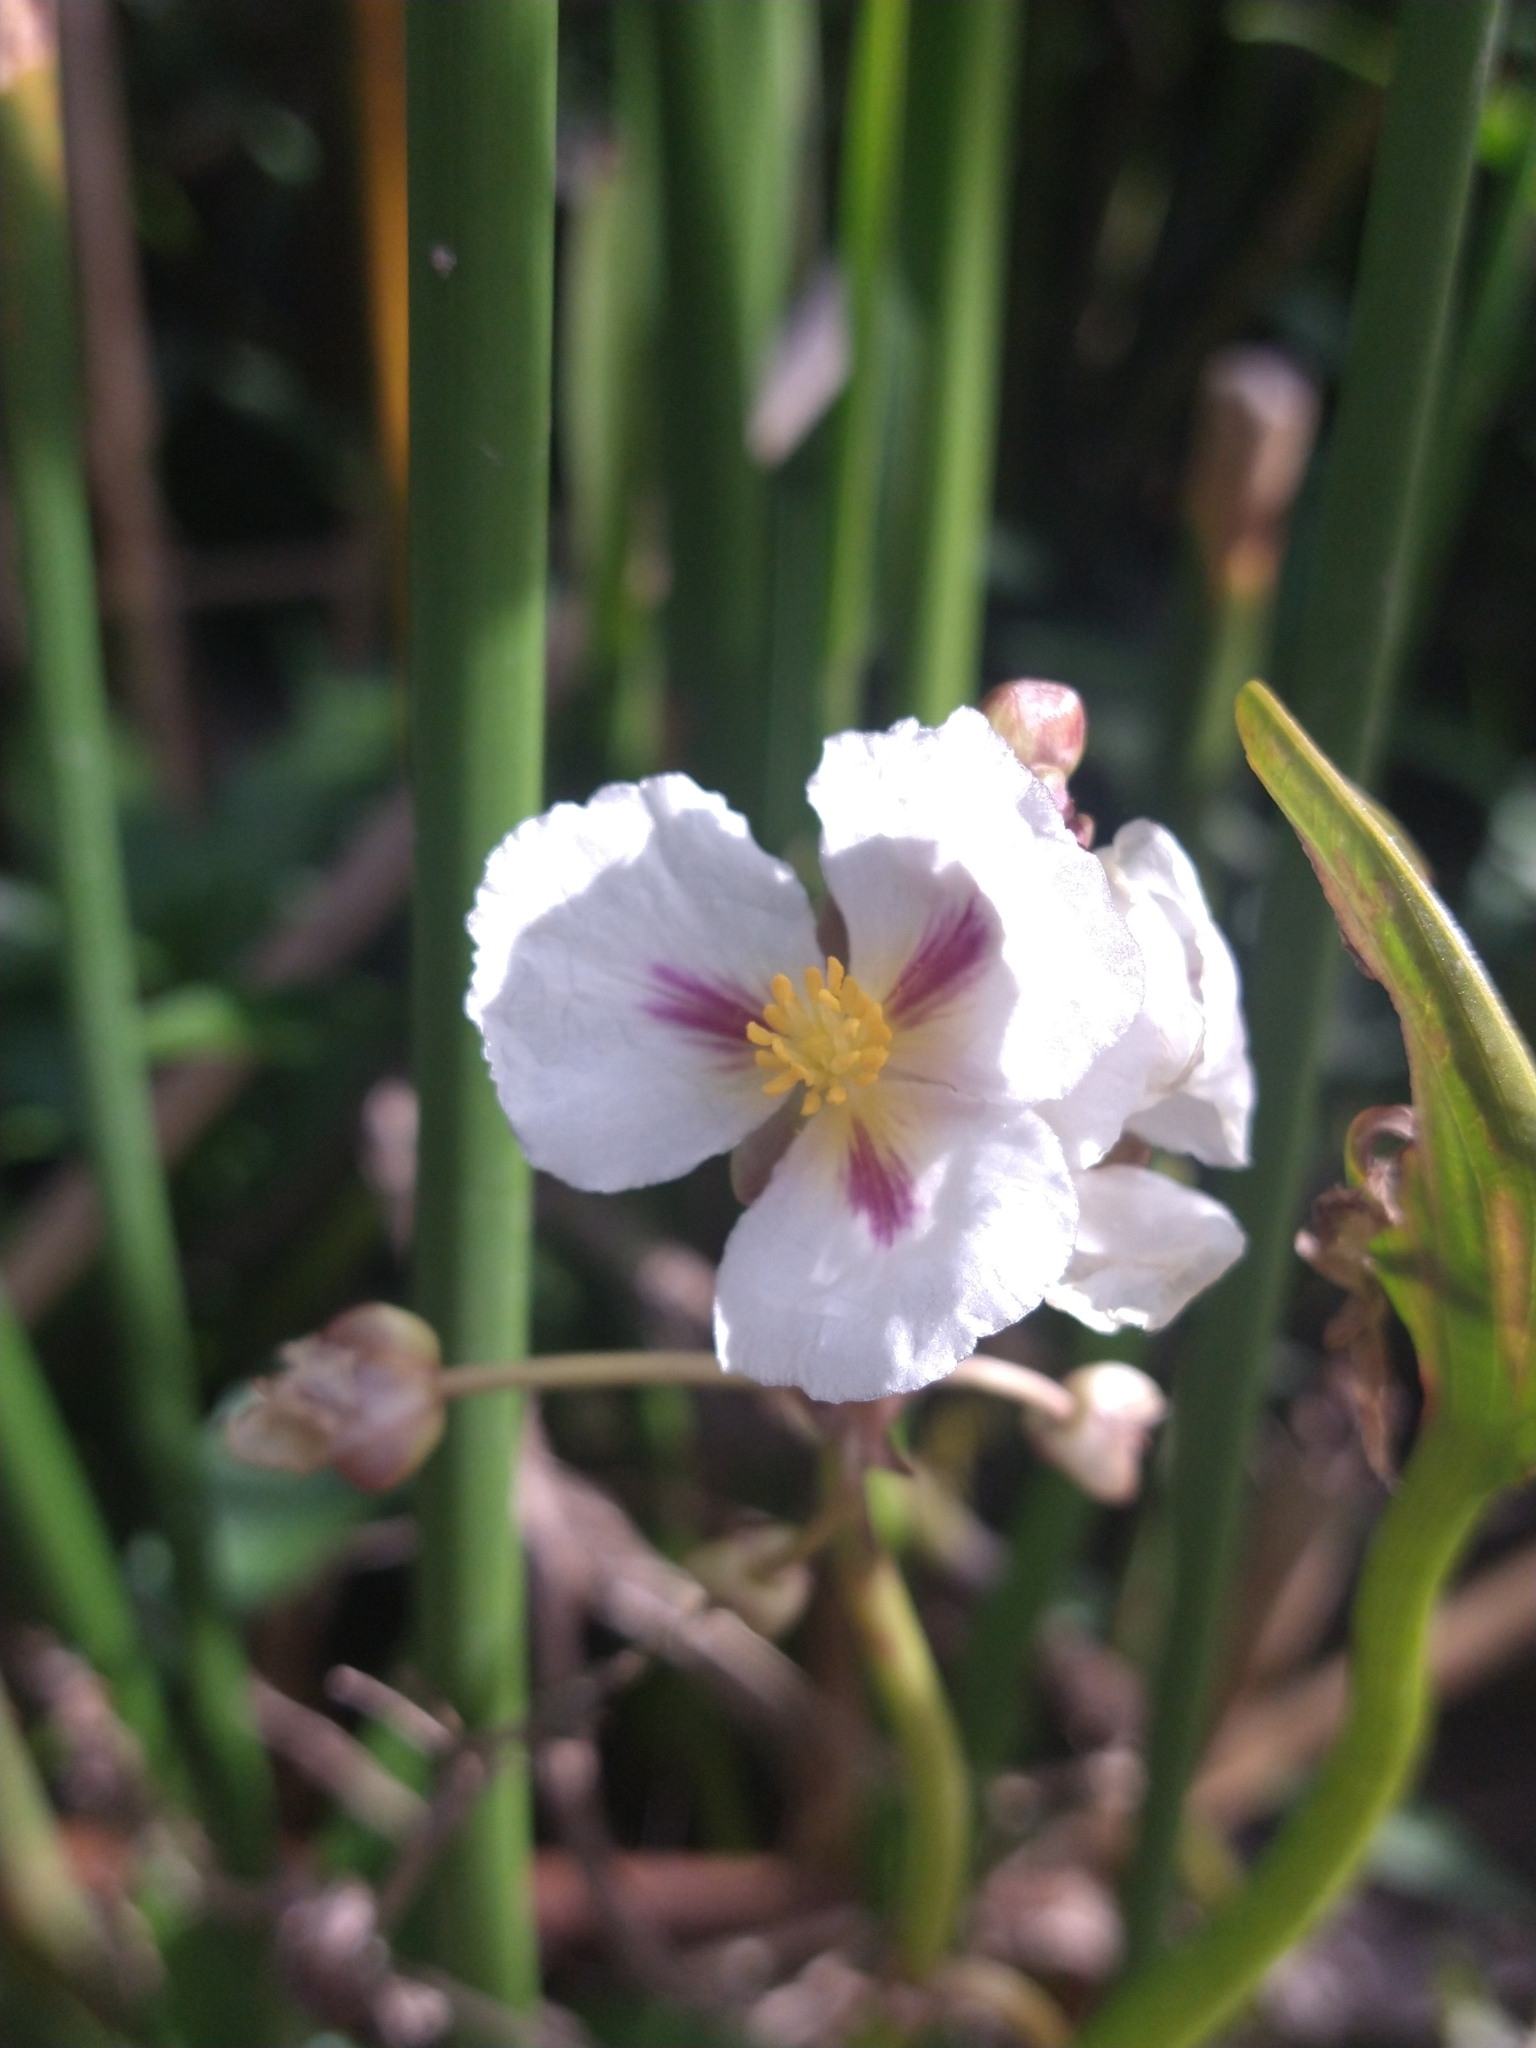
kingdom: Plantae
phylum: Tracheophyta
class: Liliopsida
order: Alismatales
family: Alismataceae
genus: Sagittaria
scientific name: Sagittaria montevidensis
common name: Giant arrowhead
